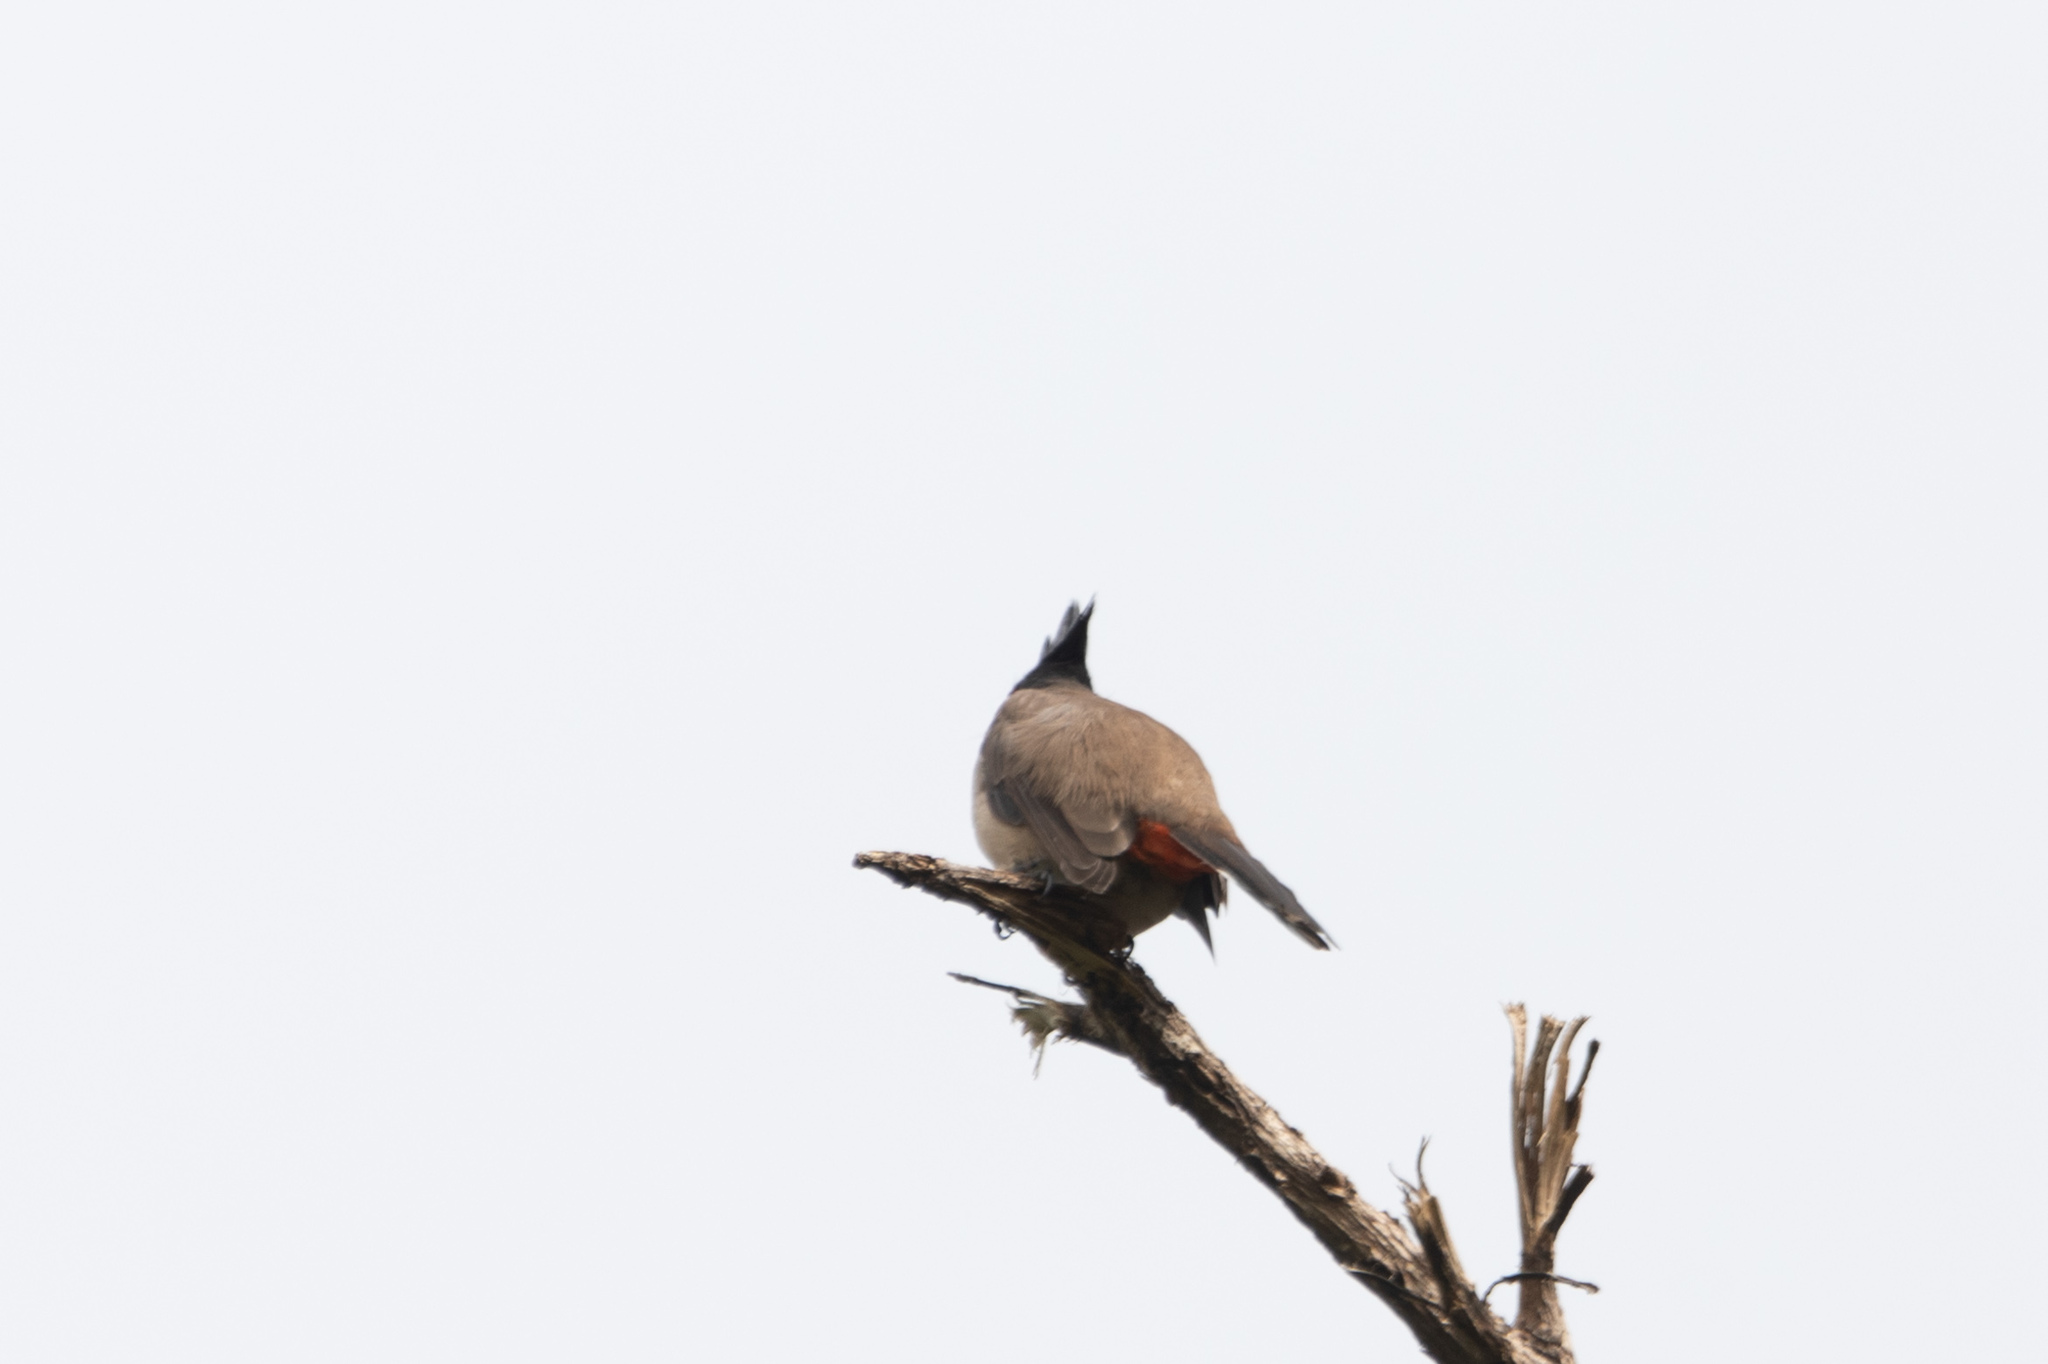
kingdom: Animalia
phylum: Chordata
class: Aves
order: Passeriformes
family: Pycnonotidae
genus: Pycnonotus
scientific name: Pycnonotus jocosus
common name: Red-whiskered bulbul
